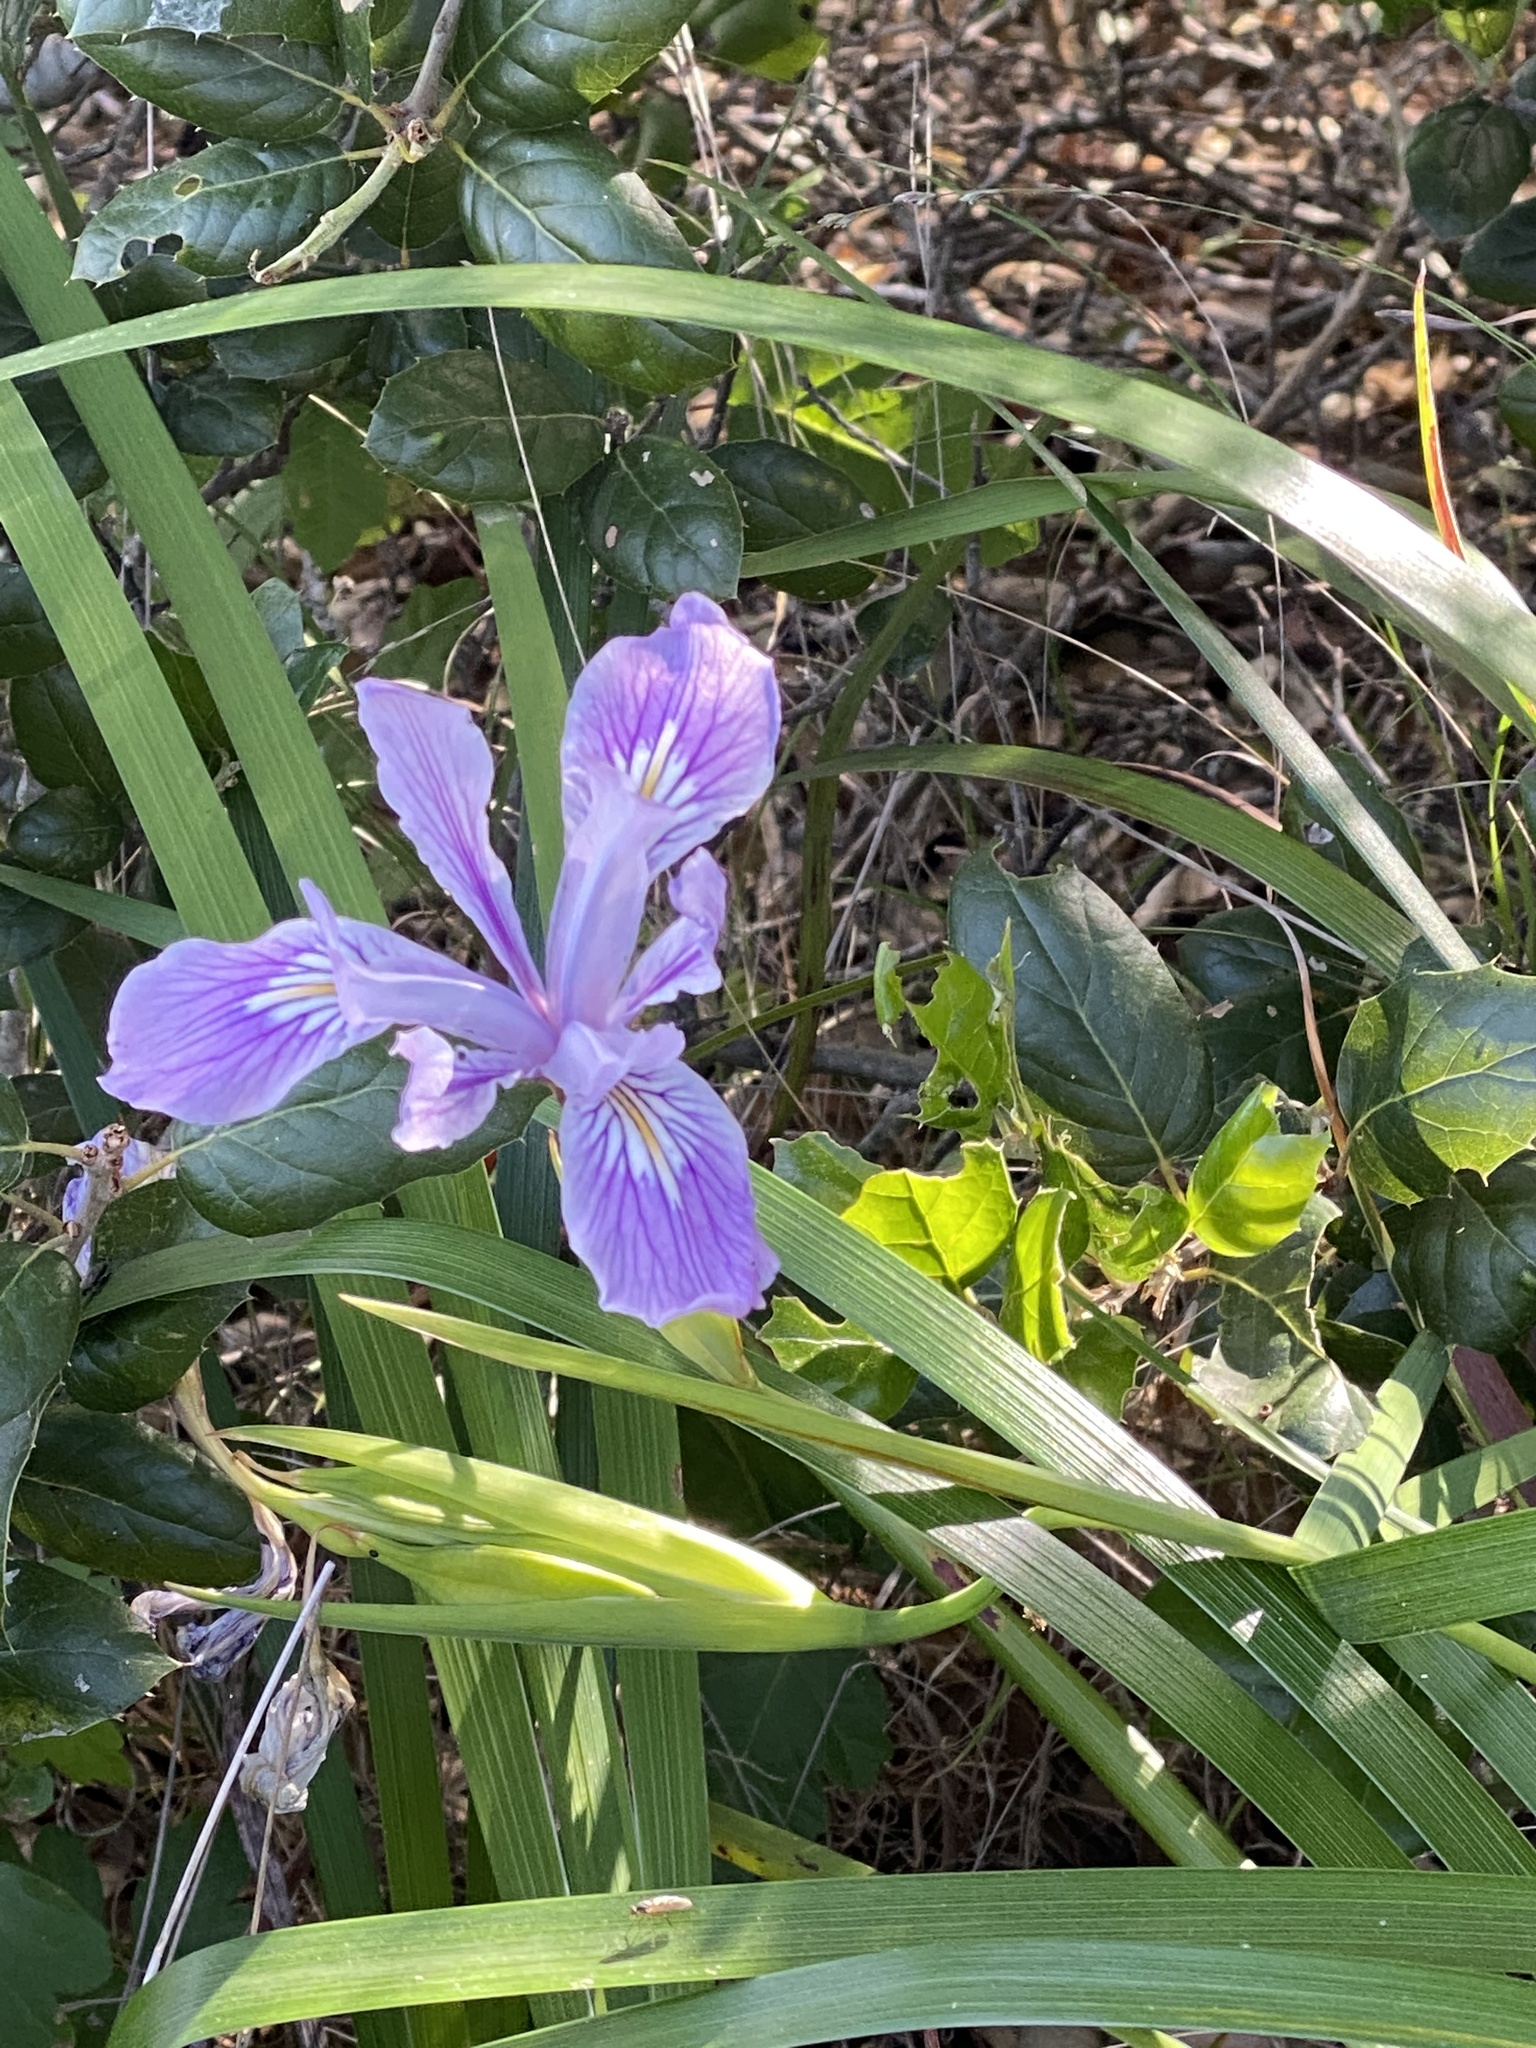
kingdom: Plantae
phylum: Tracheophyta
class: Liliopsida
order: Asparagales
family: Iridaceae
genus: Iris
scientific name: Iris douglasiana
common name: Marin iris
